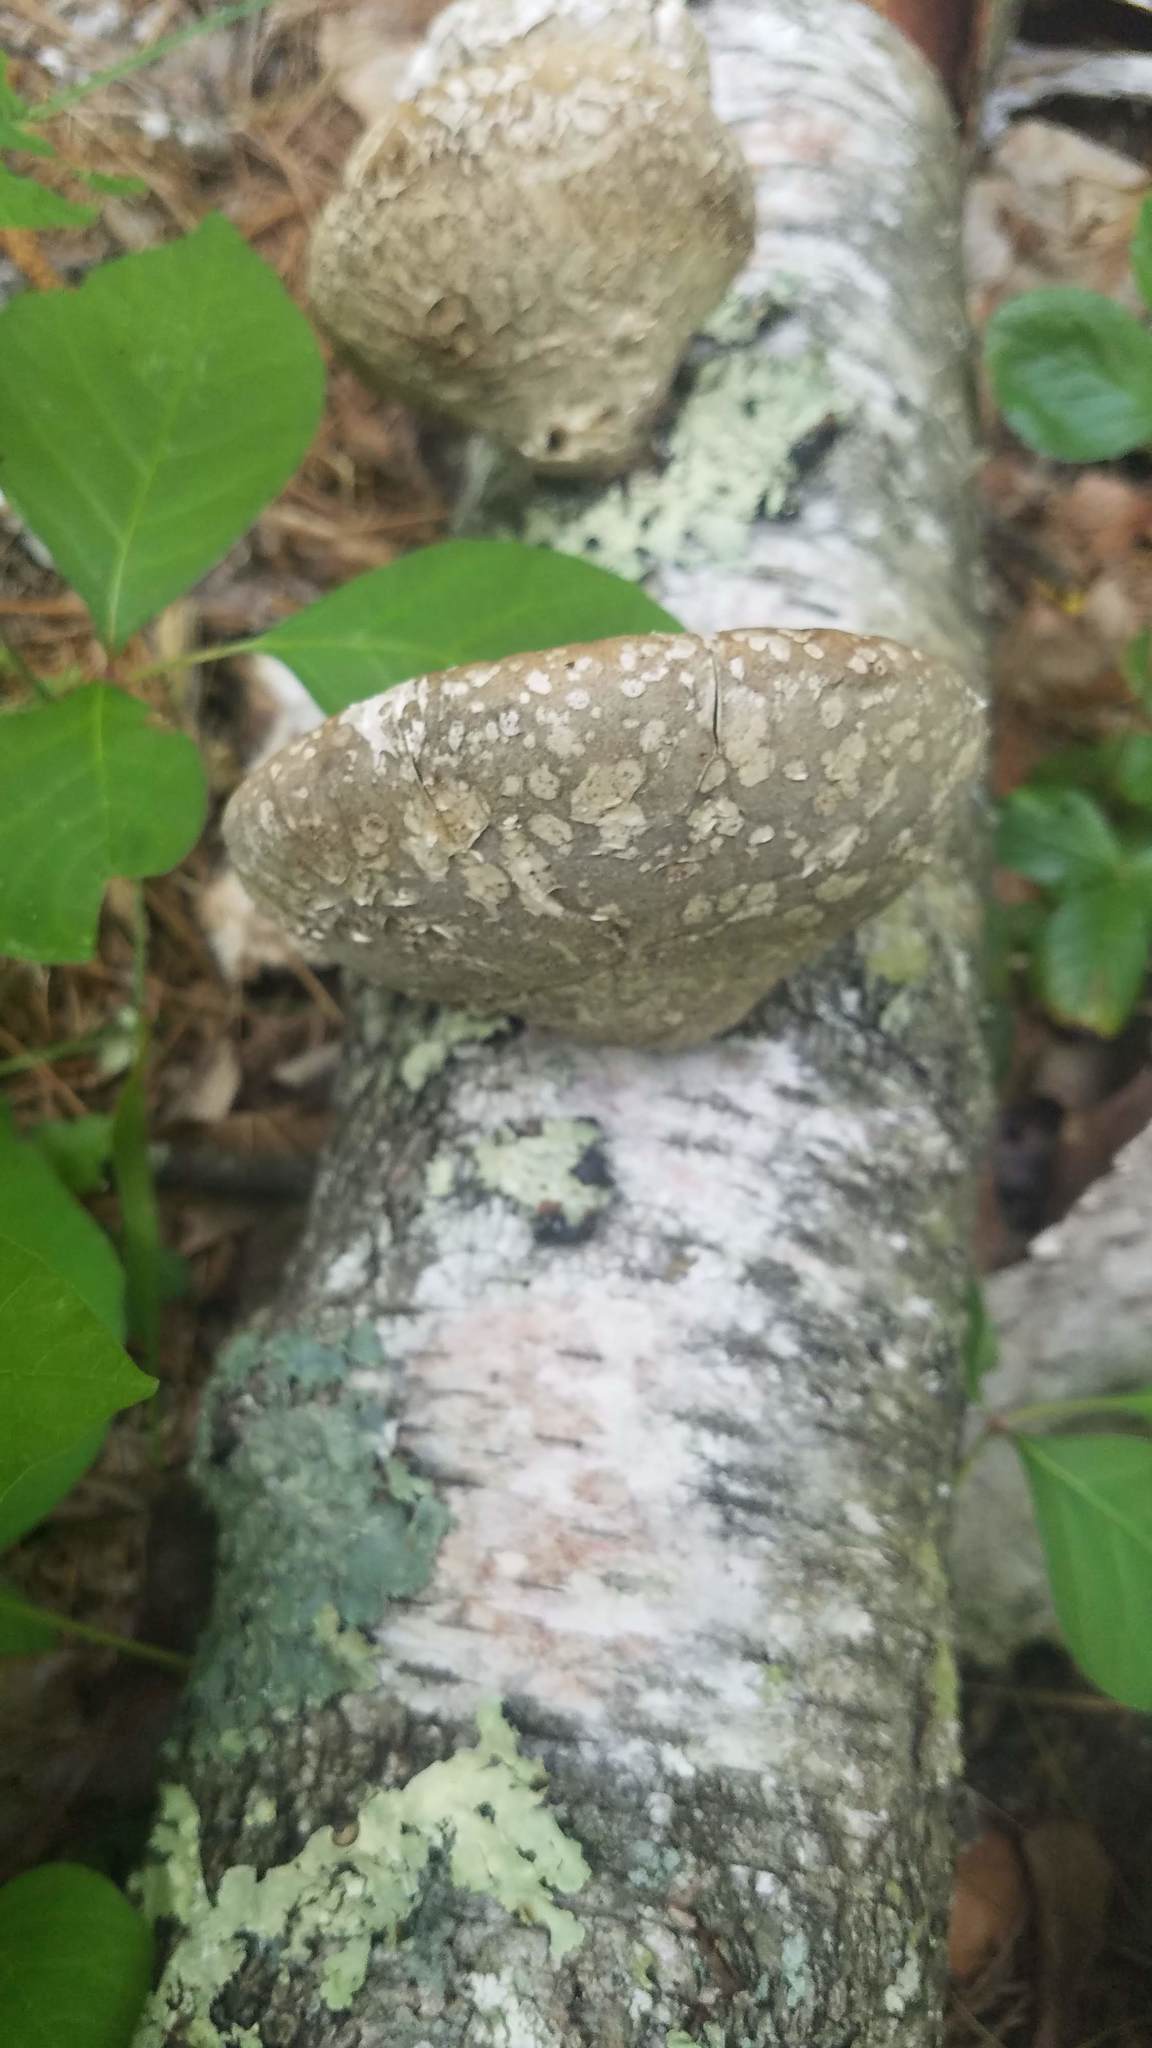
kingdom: Fungi
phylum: Basidiomycota
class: Agaricomycetes
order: Polyporales
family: Fomitopsidaceae
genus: Fomitopsis
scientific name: Fomitopsis betulina
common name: Birch polypore
